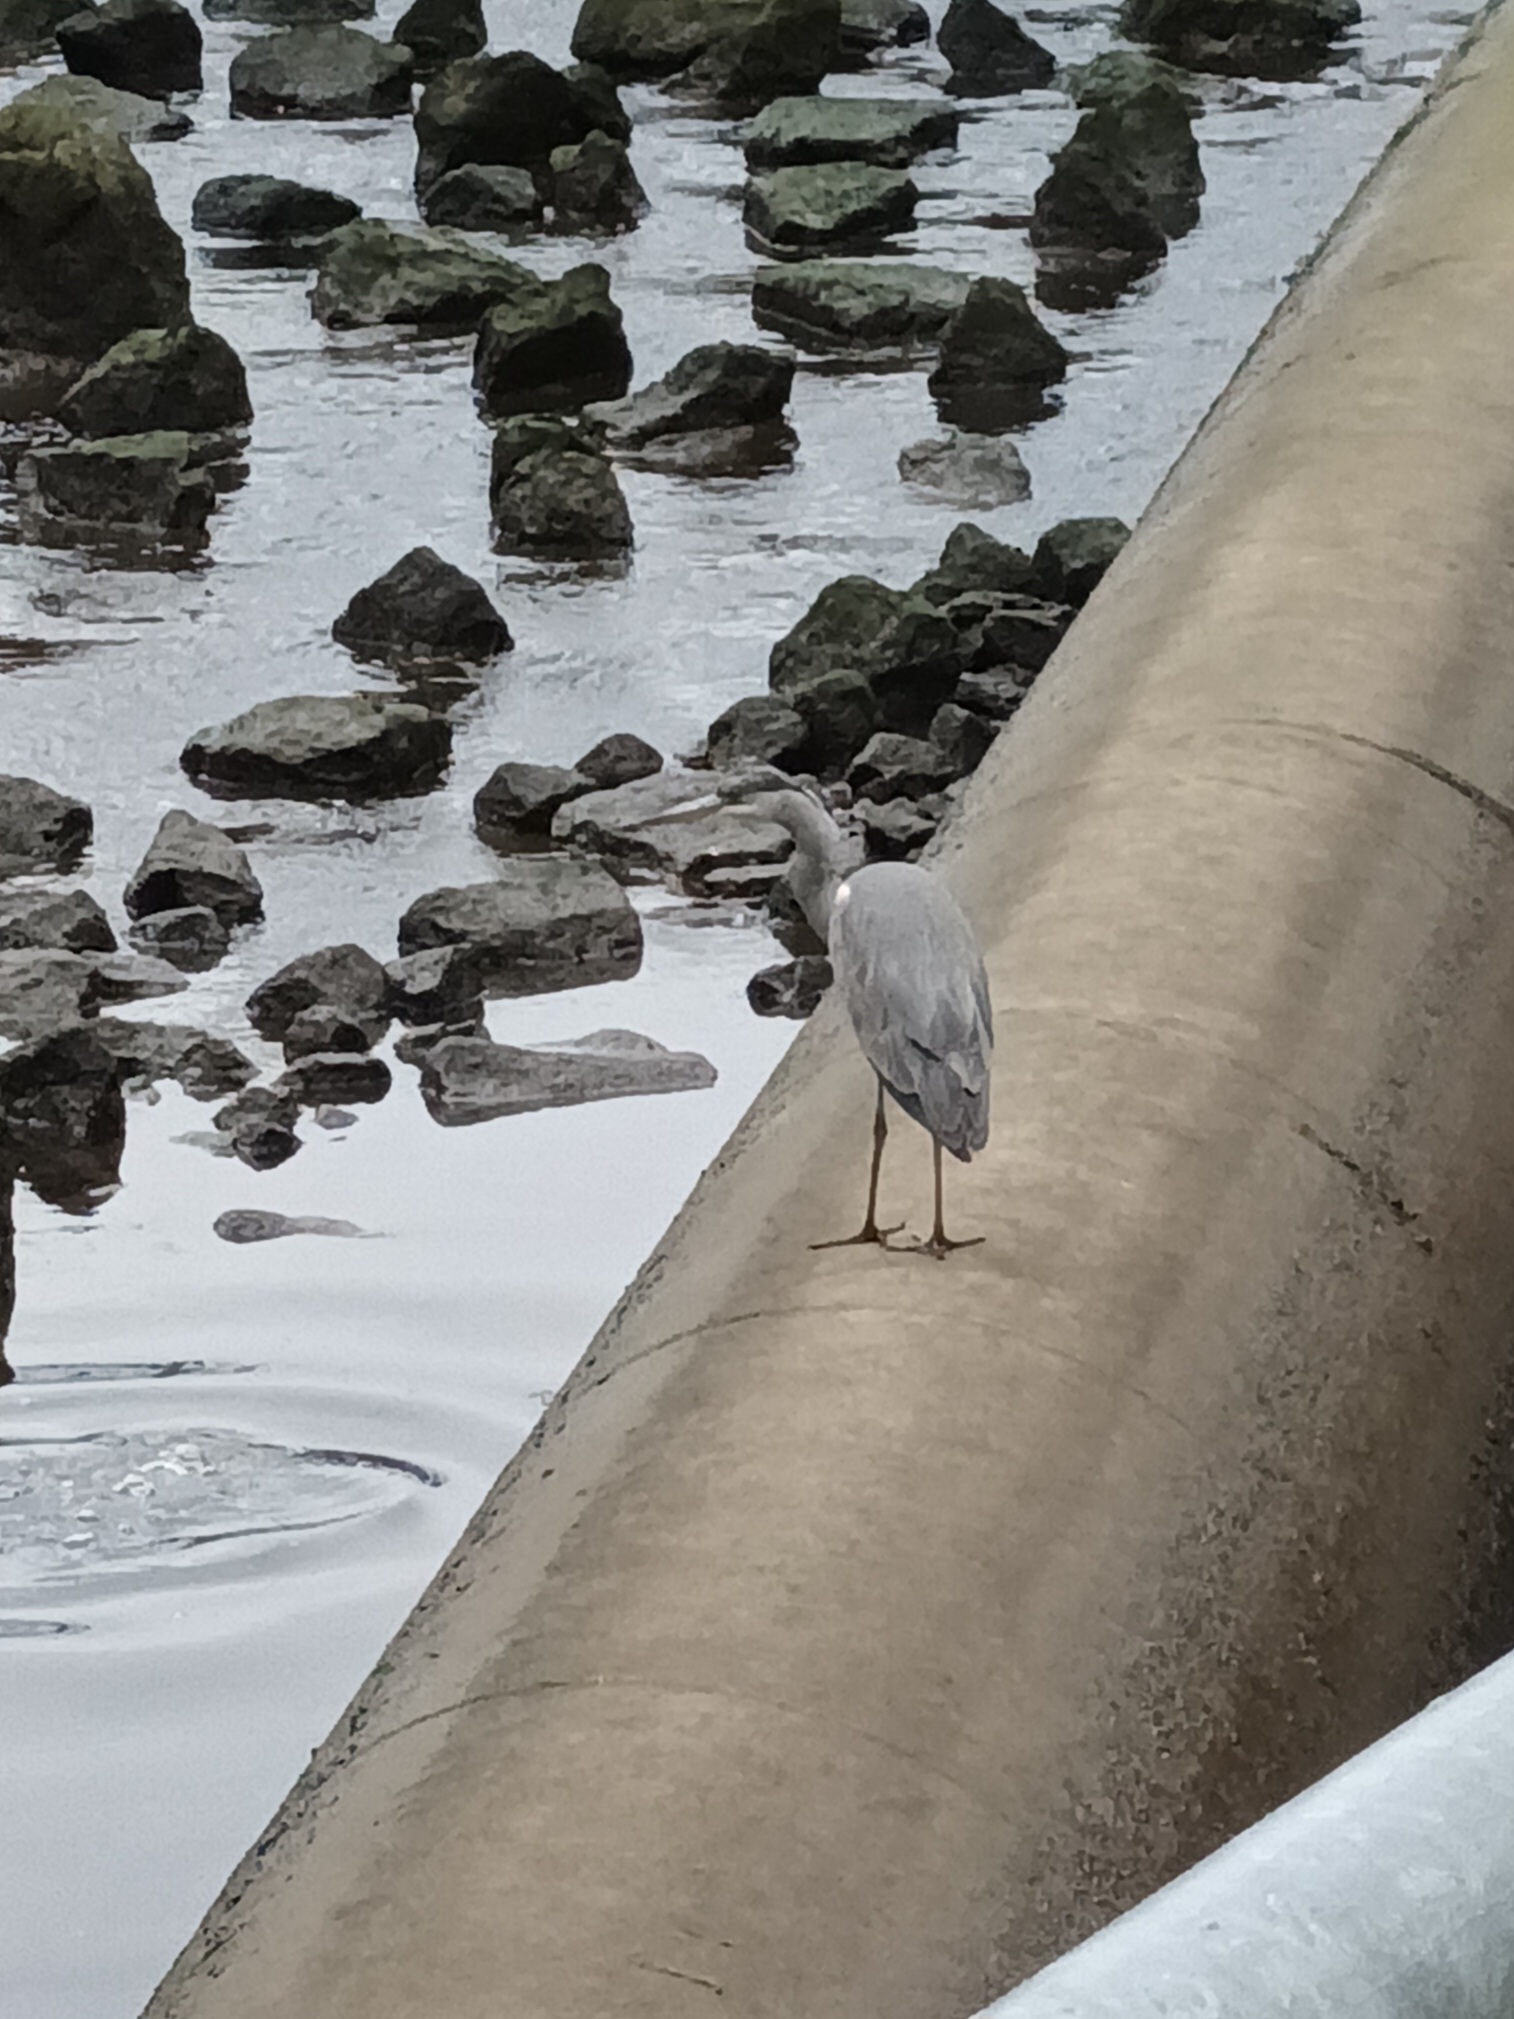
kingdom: Animalia
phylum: Chordata
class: Aves
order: Pelecaniformes
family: Ardeidae
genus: Ardea
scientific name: Ardea cinerea
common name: Grey heron
